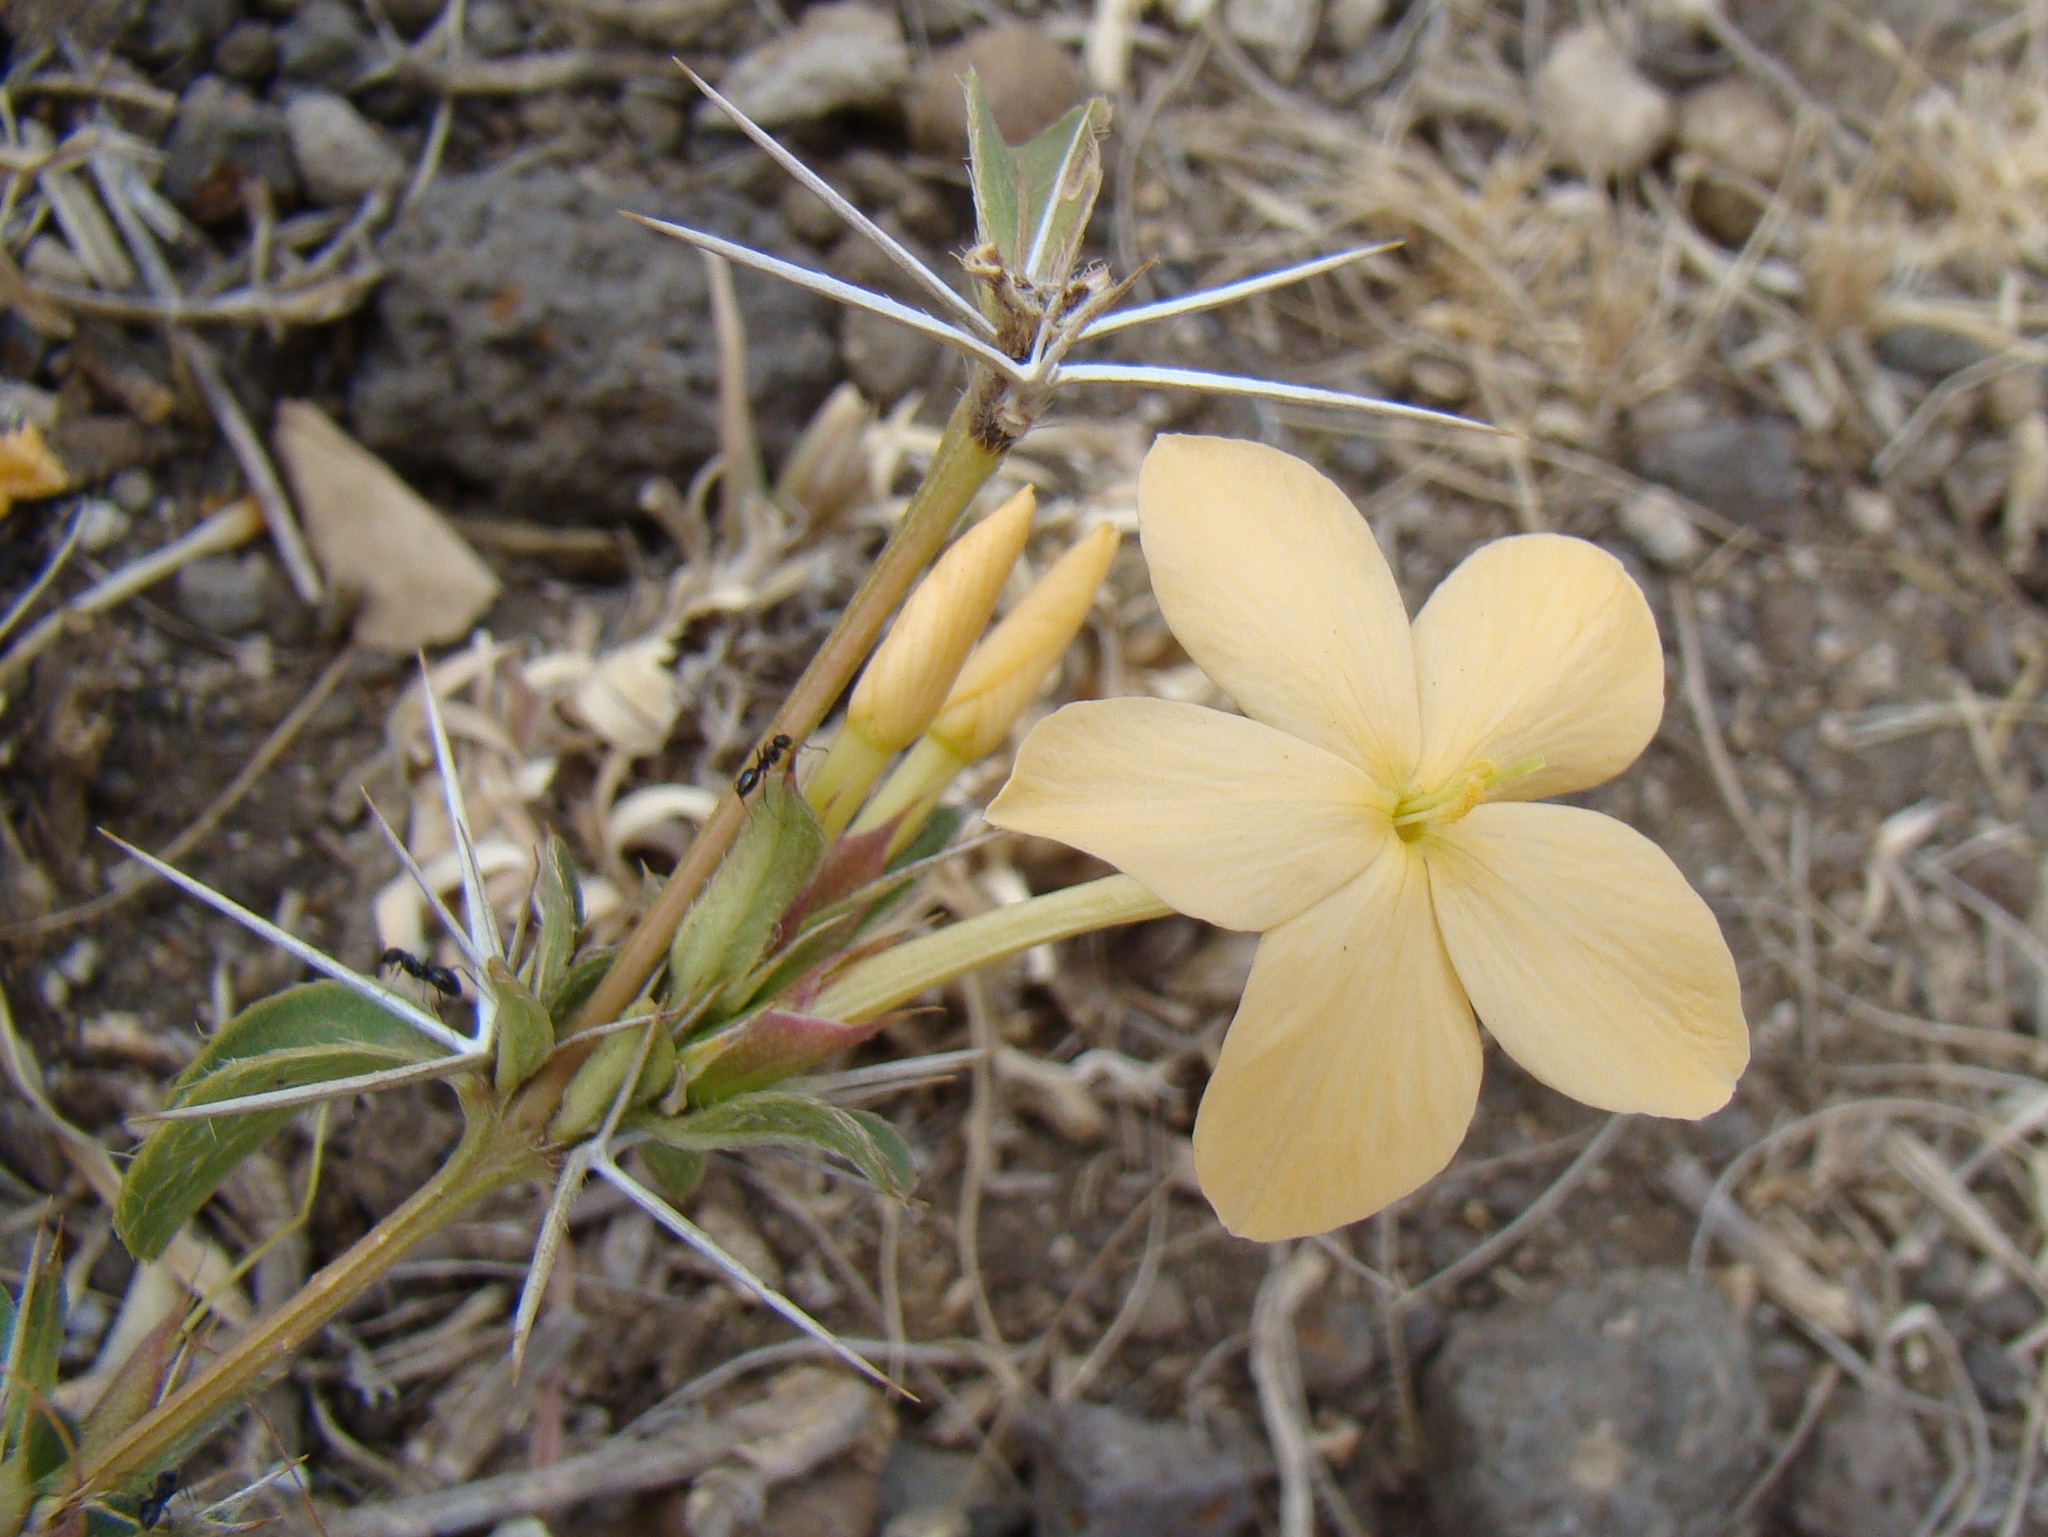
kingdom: Plantae
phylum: Tracheophyta
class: Magnoliopsida
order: Lamiales
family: Acanthaceae
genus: Barleria
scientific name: Barleria eranthemoides
